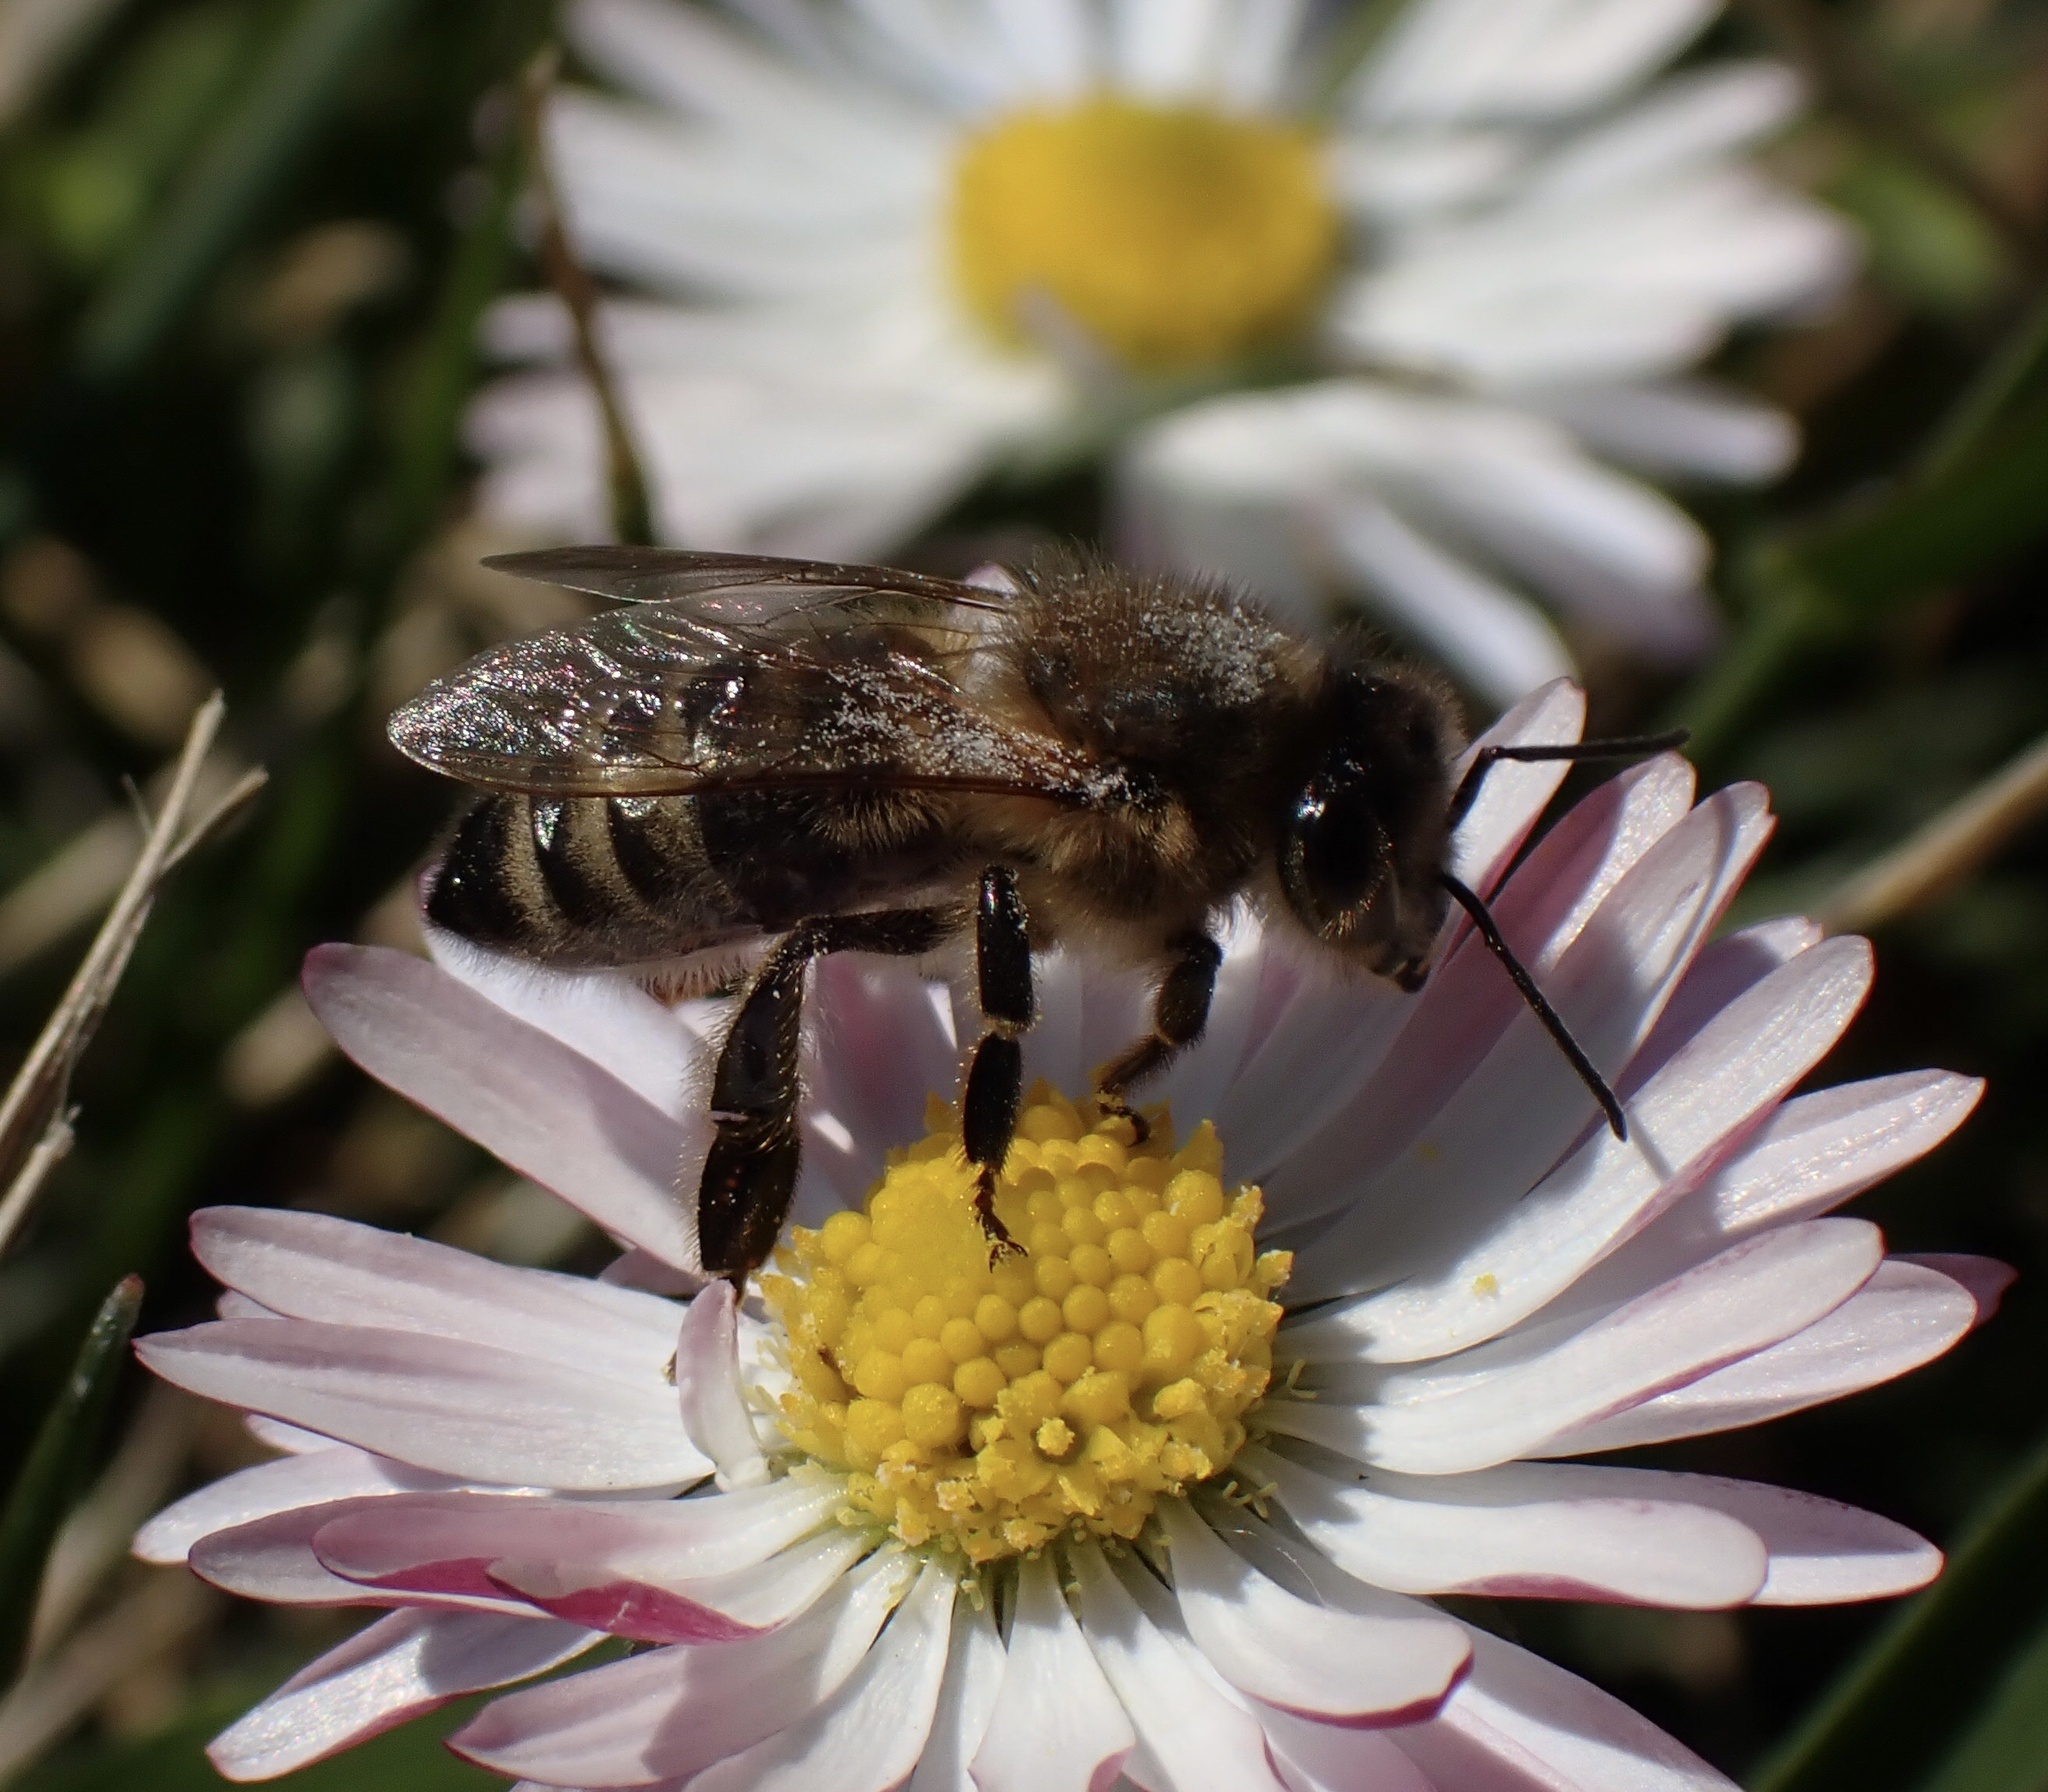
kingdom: Animalia
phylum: Arthropoda
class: Insecta
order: Hymenoptera
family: Apidae
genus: Apis
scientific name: Apis mellifera
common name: Honey bee
